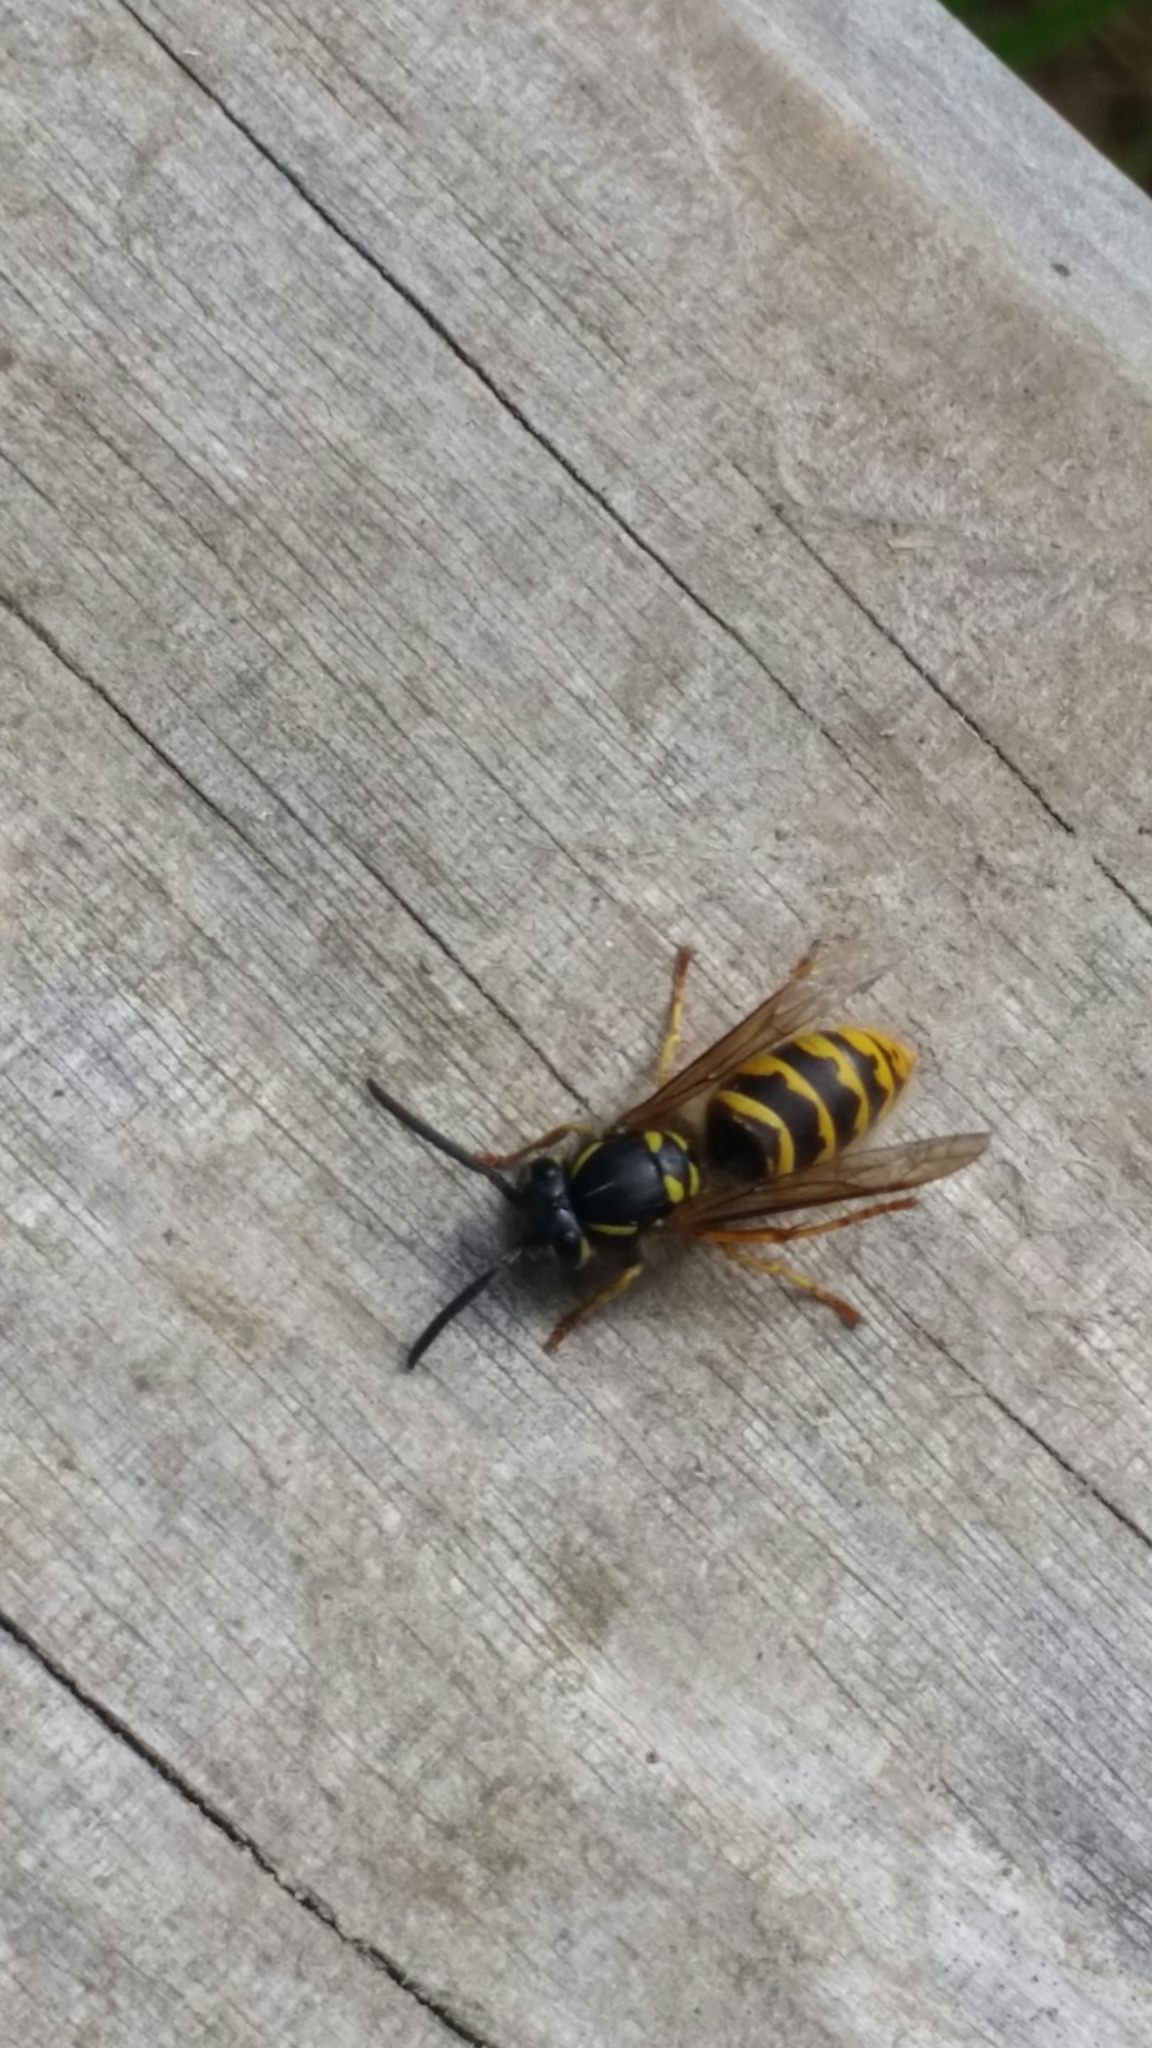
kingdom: Animalia
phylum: Arthropoda
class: Insecta
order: Hymenoptera
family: Vespidae
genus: Vespula
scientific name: Vespula vulgaris
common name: Common wasp
